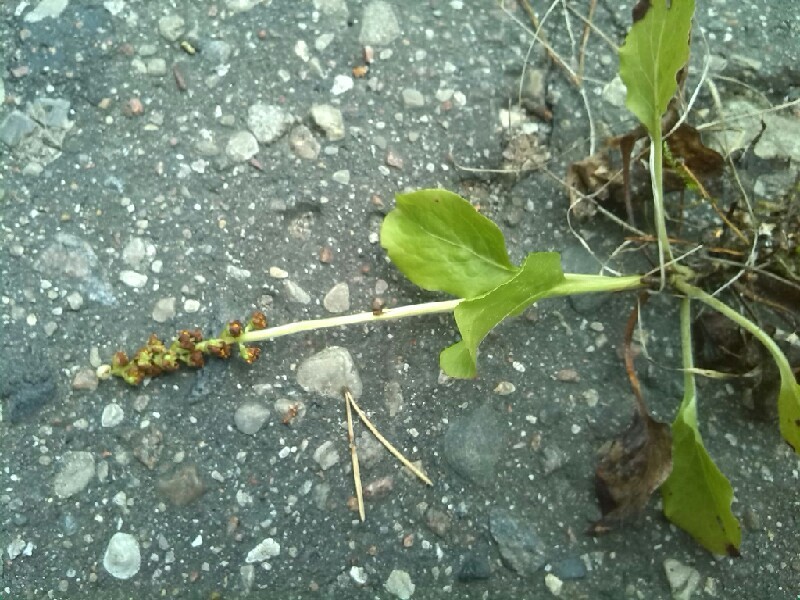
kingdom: Plantae
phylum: Tracheophyta
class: Magnoliopsida
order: Ericales
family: Ericaceae
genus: Pyrola
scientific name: Pyrola chlorantha
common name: Green wintergreen
